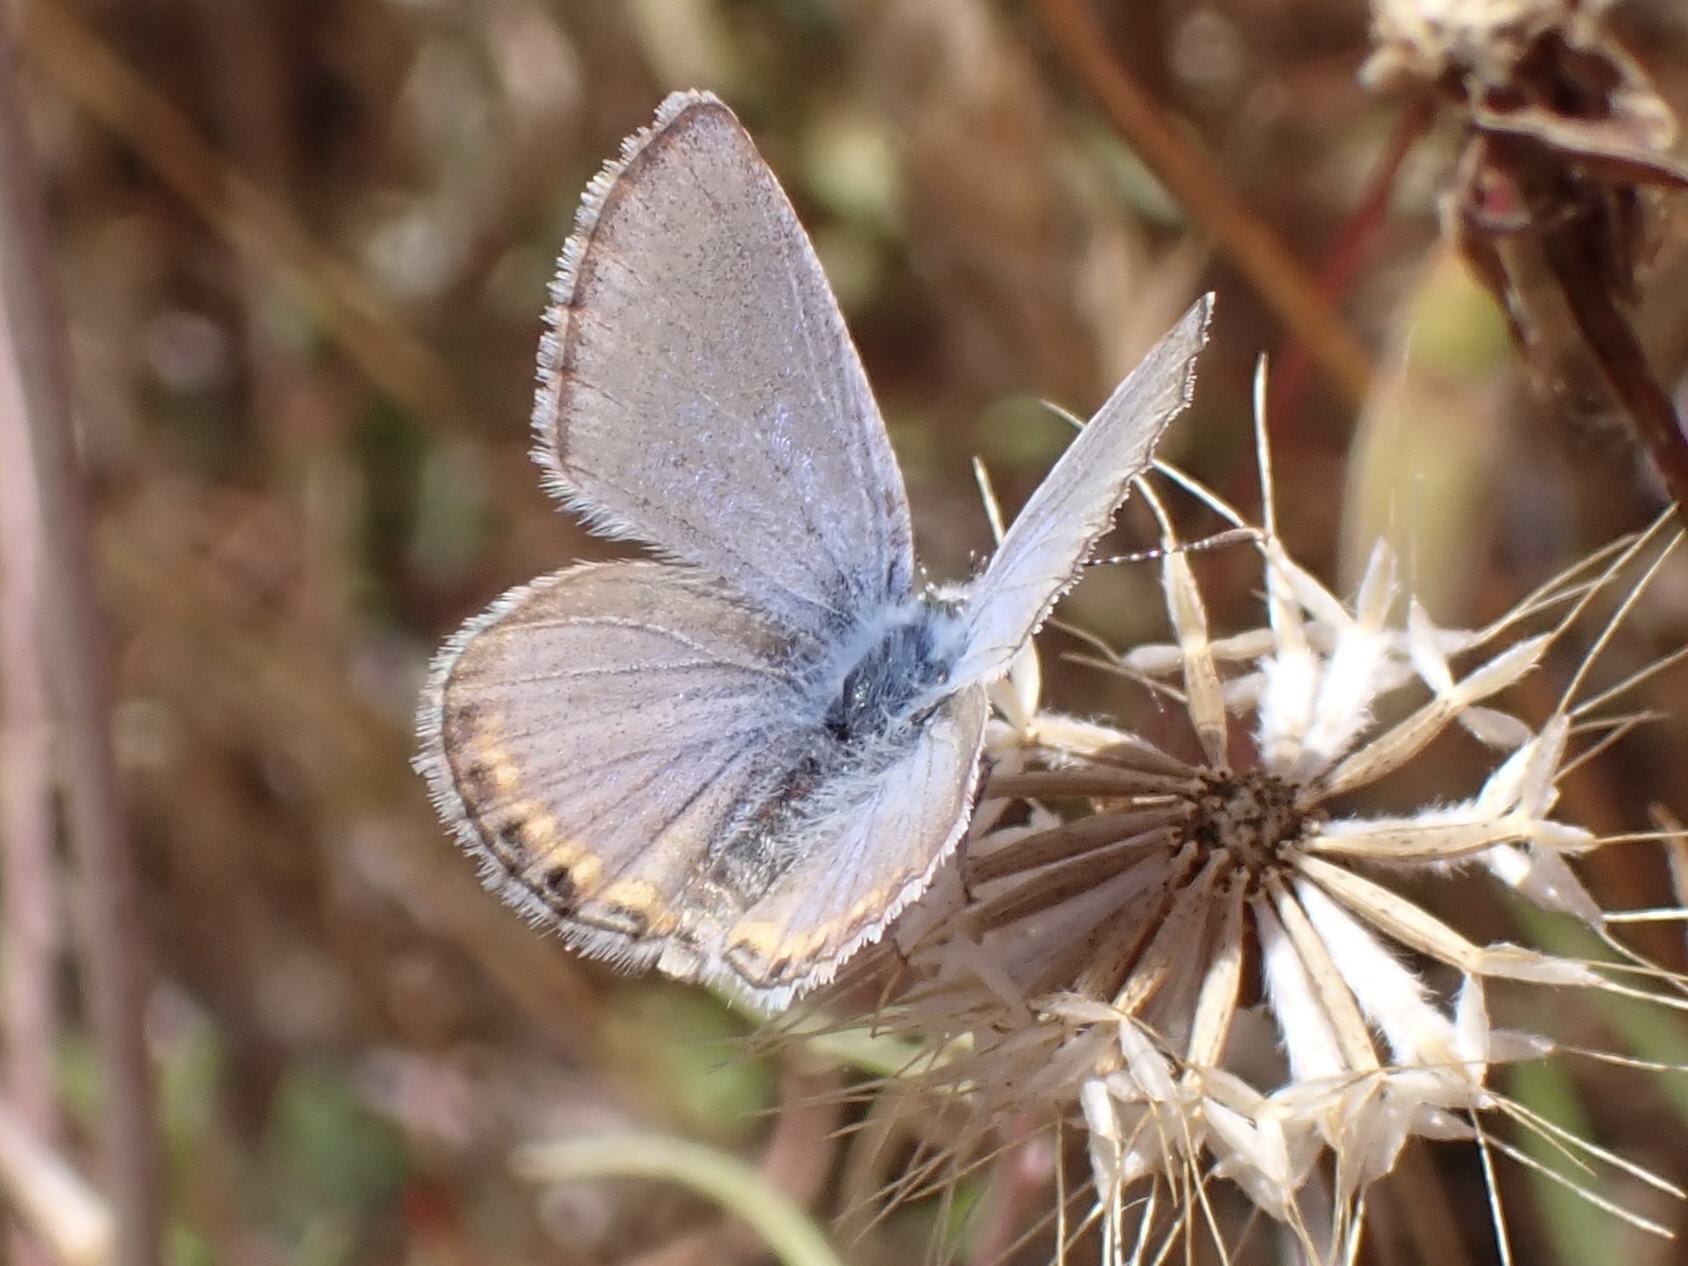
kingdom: Animalia
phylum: Arthropoda
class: Insecta
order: Lepidoptera
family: Lycaenidae
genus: Icaricia
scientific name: Icaricia acmon
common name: Acmon blue
